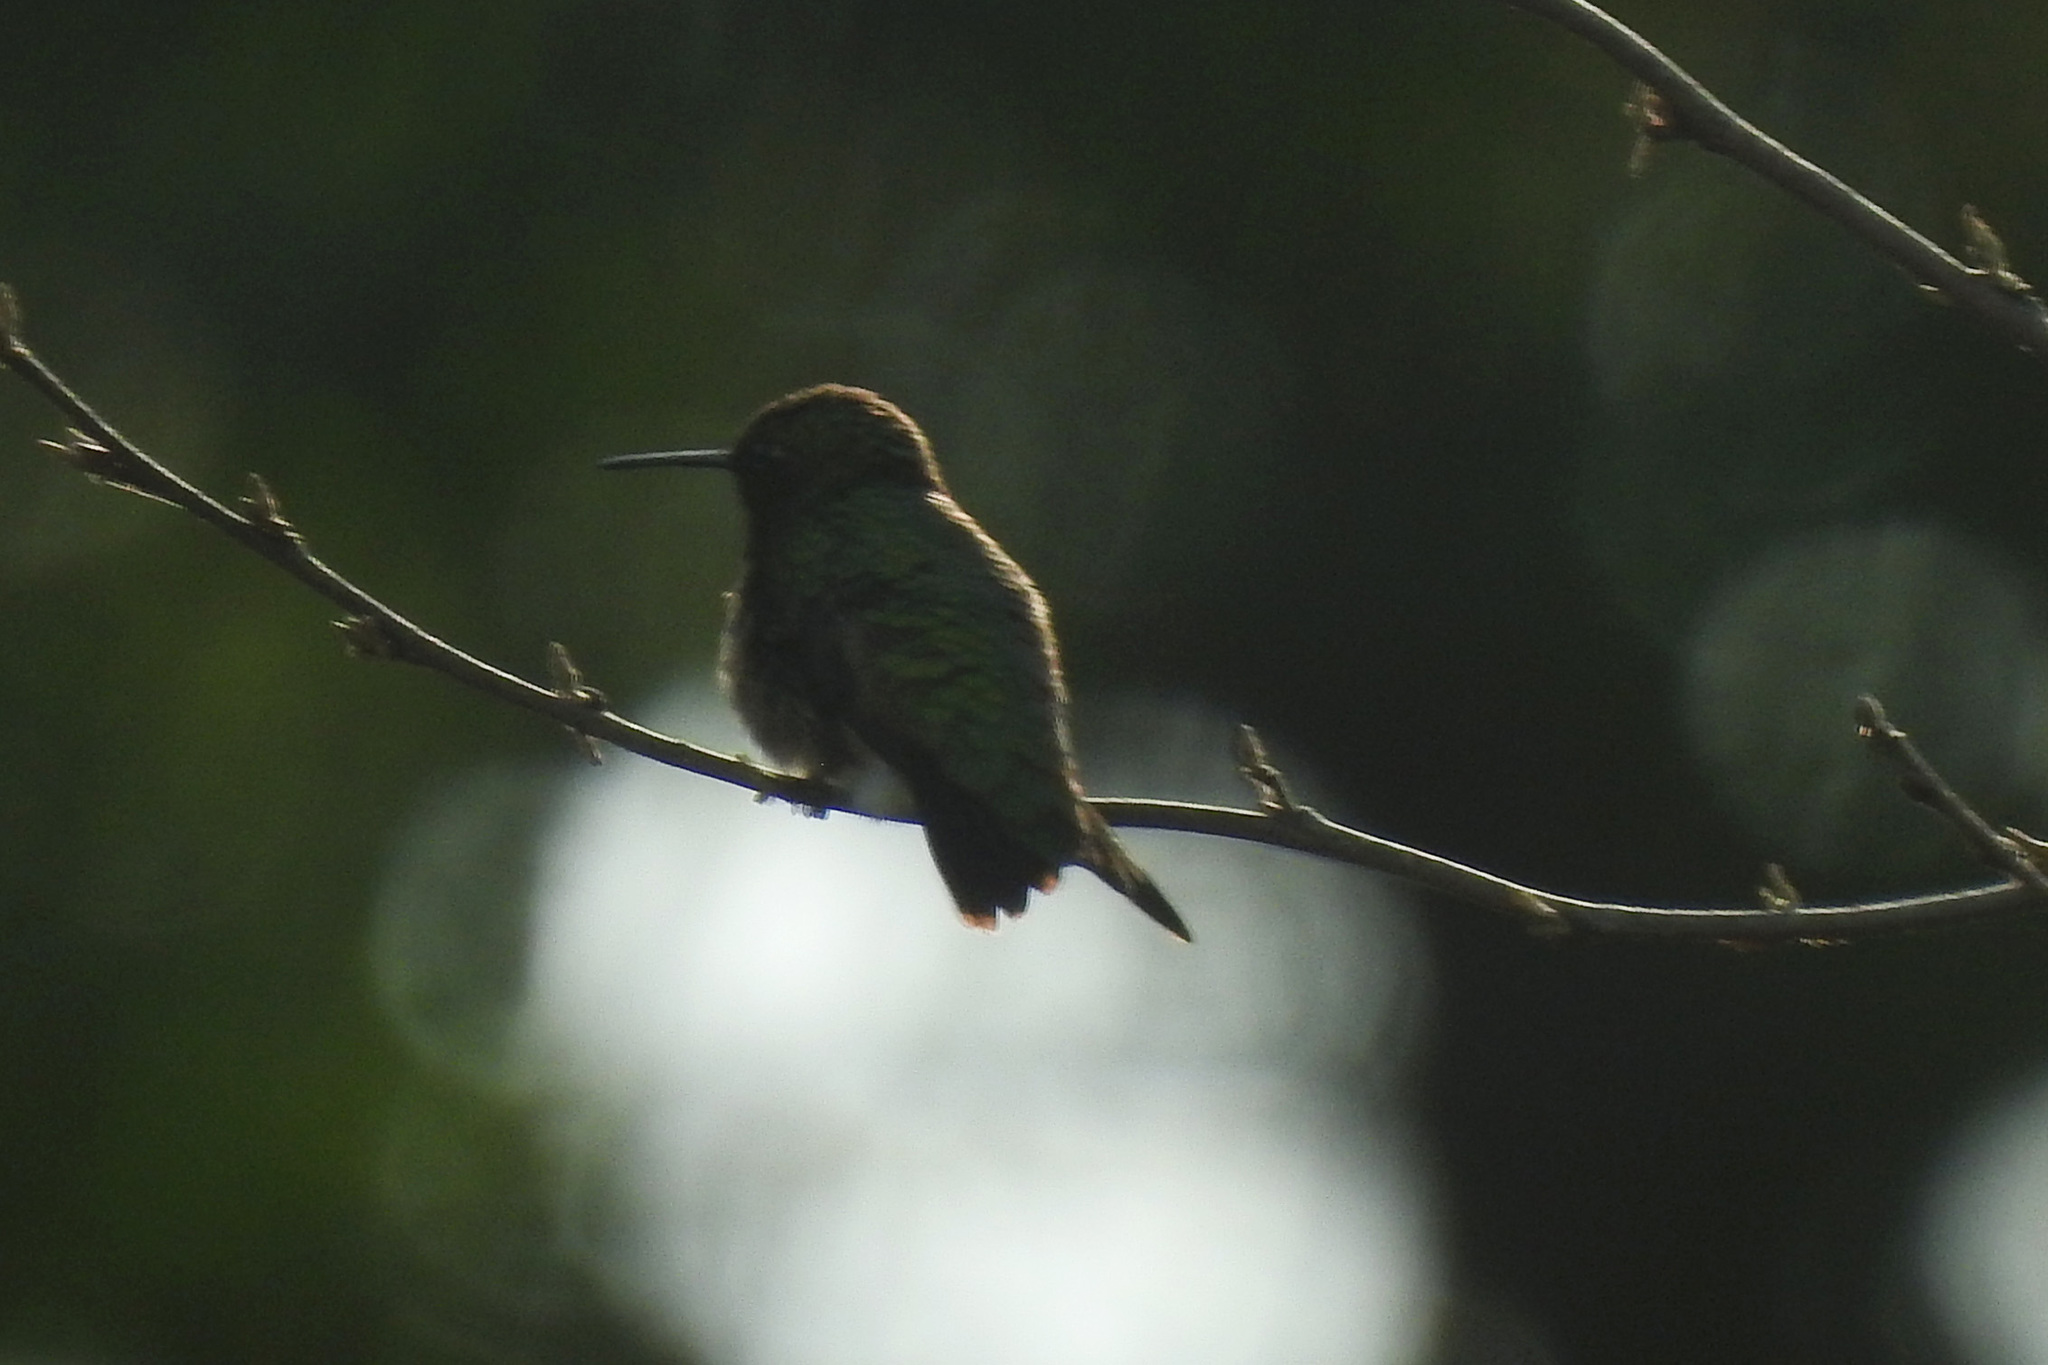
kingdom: Animalia
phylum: Chordata
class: Aves
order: Apodiformes
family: Trochilidae
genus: Archilochus
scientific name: Archilochus colubris
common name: Ruby-throated hummingbird
